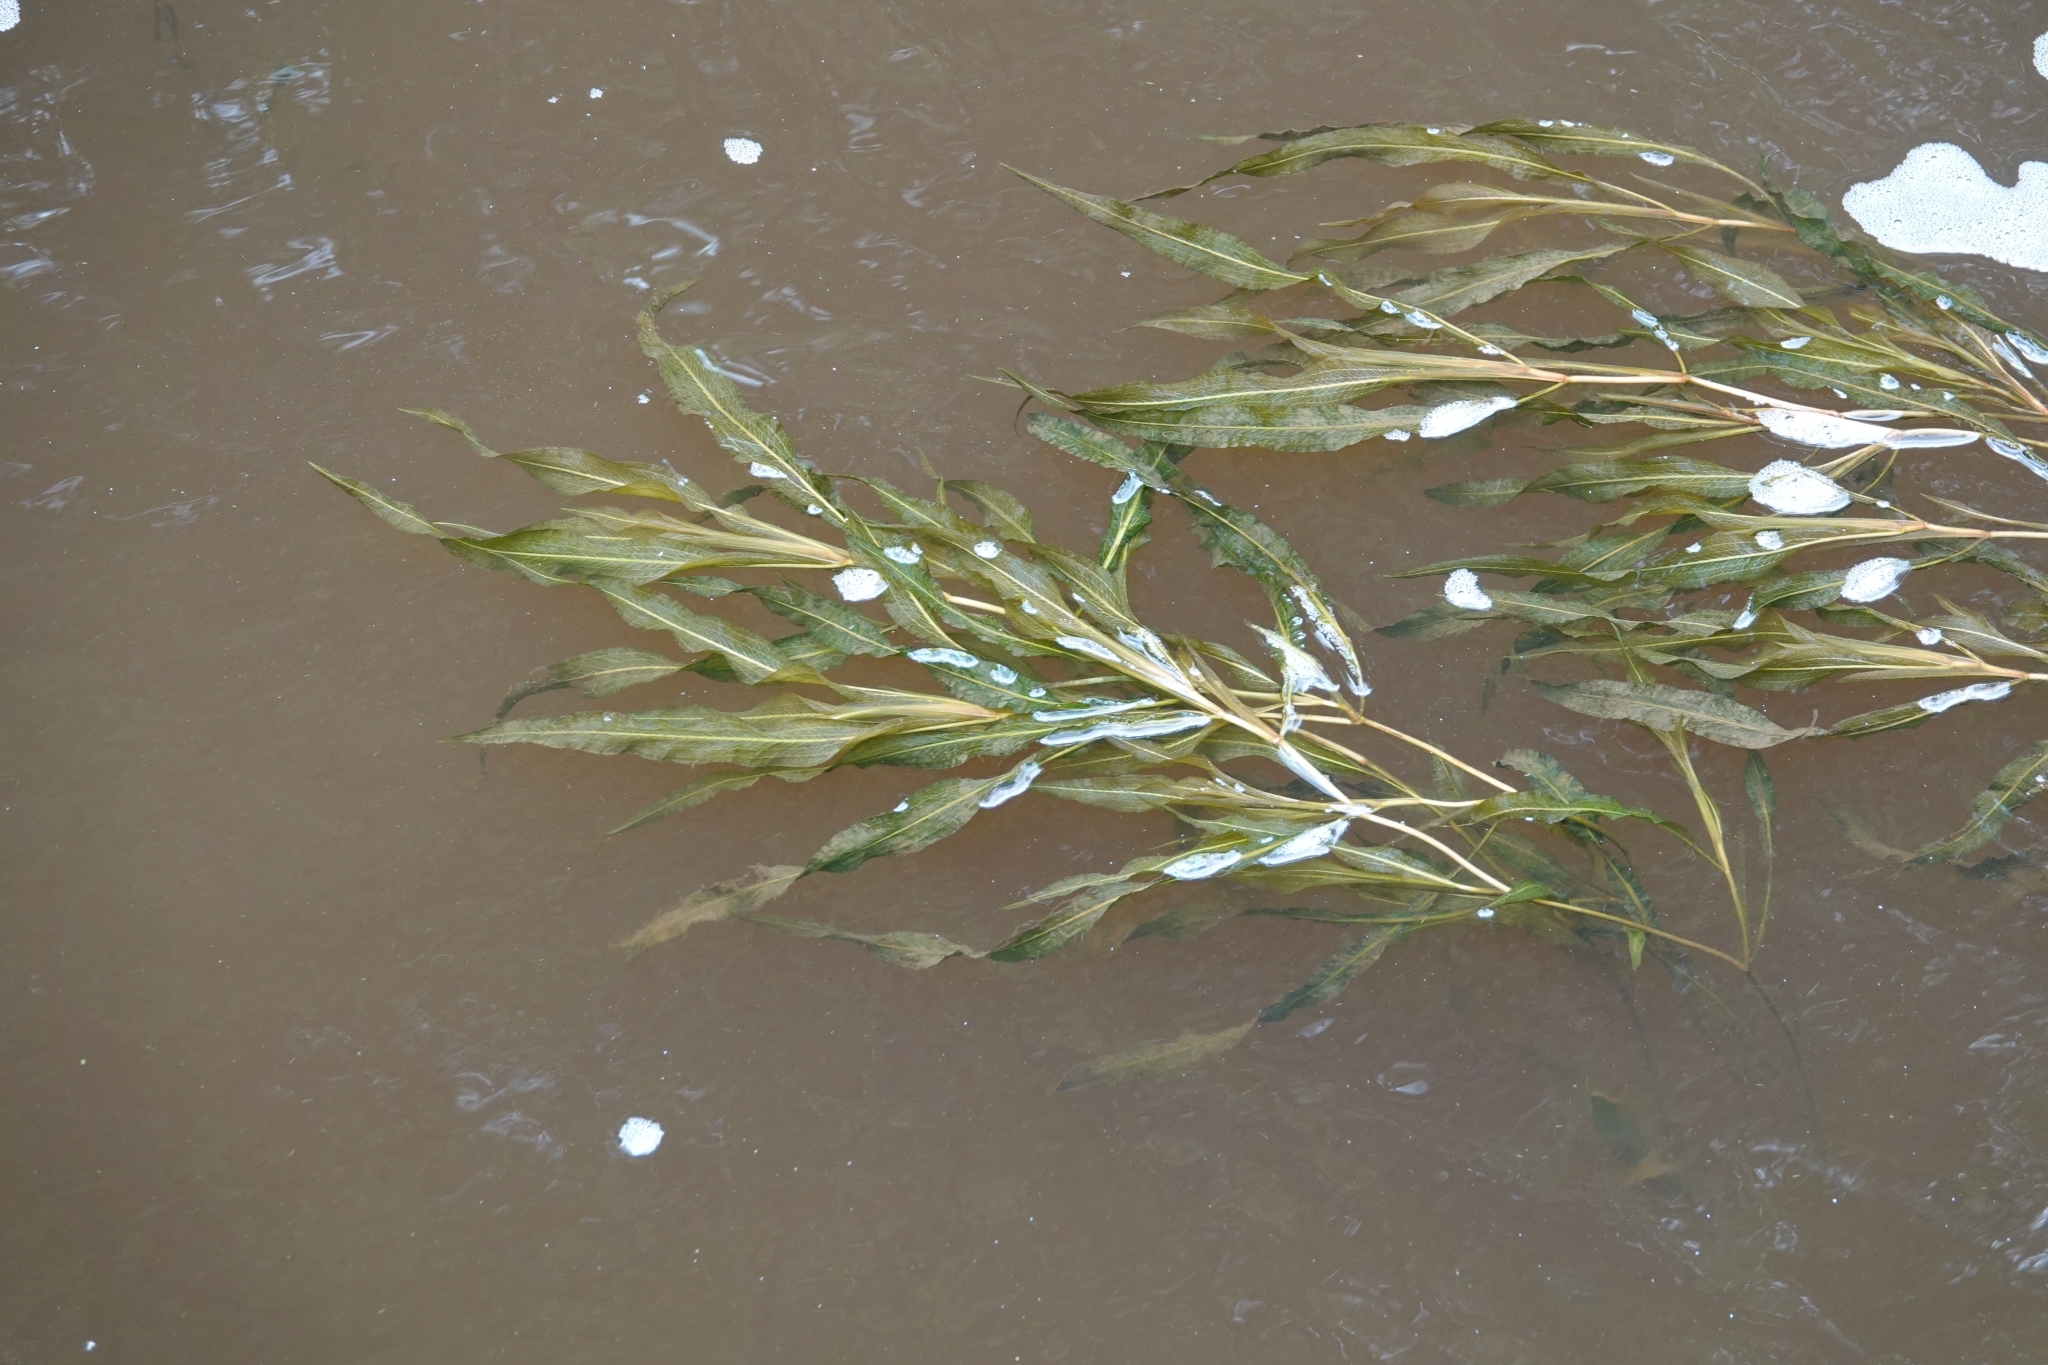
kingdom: Plantae
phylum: Tracheophyta
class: Liliopsida
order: Alismatales
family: Potamogetonaceae
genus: Potamogeton
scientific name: Potamogeton lucens
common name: Shining pondweed
